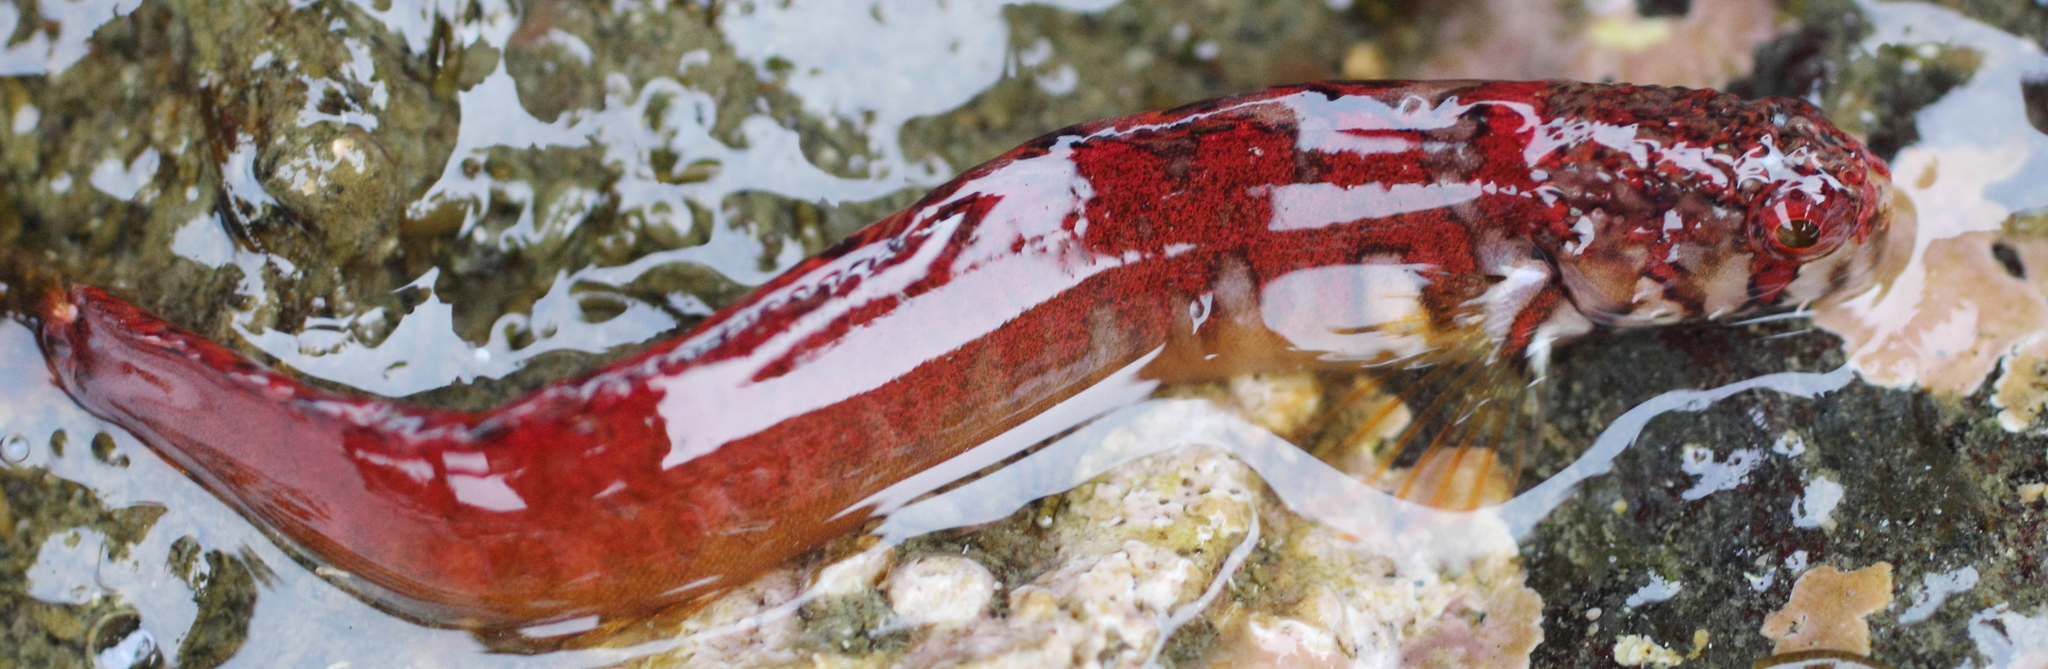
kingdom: Animalia
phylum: Chordata
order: Perciformes
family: Stichaeidae
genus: Chirolophis
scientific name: Chirolophis nugator
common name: Mosshead warbonnet
